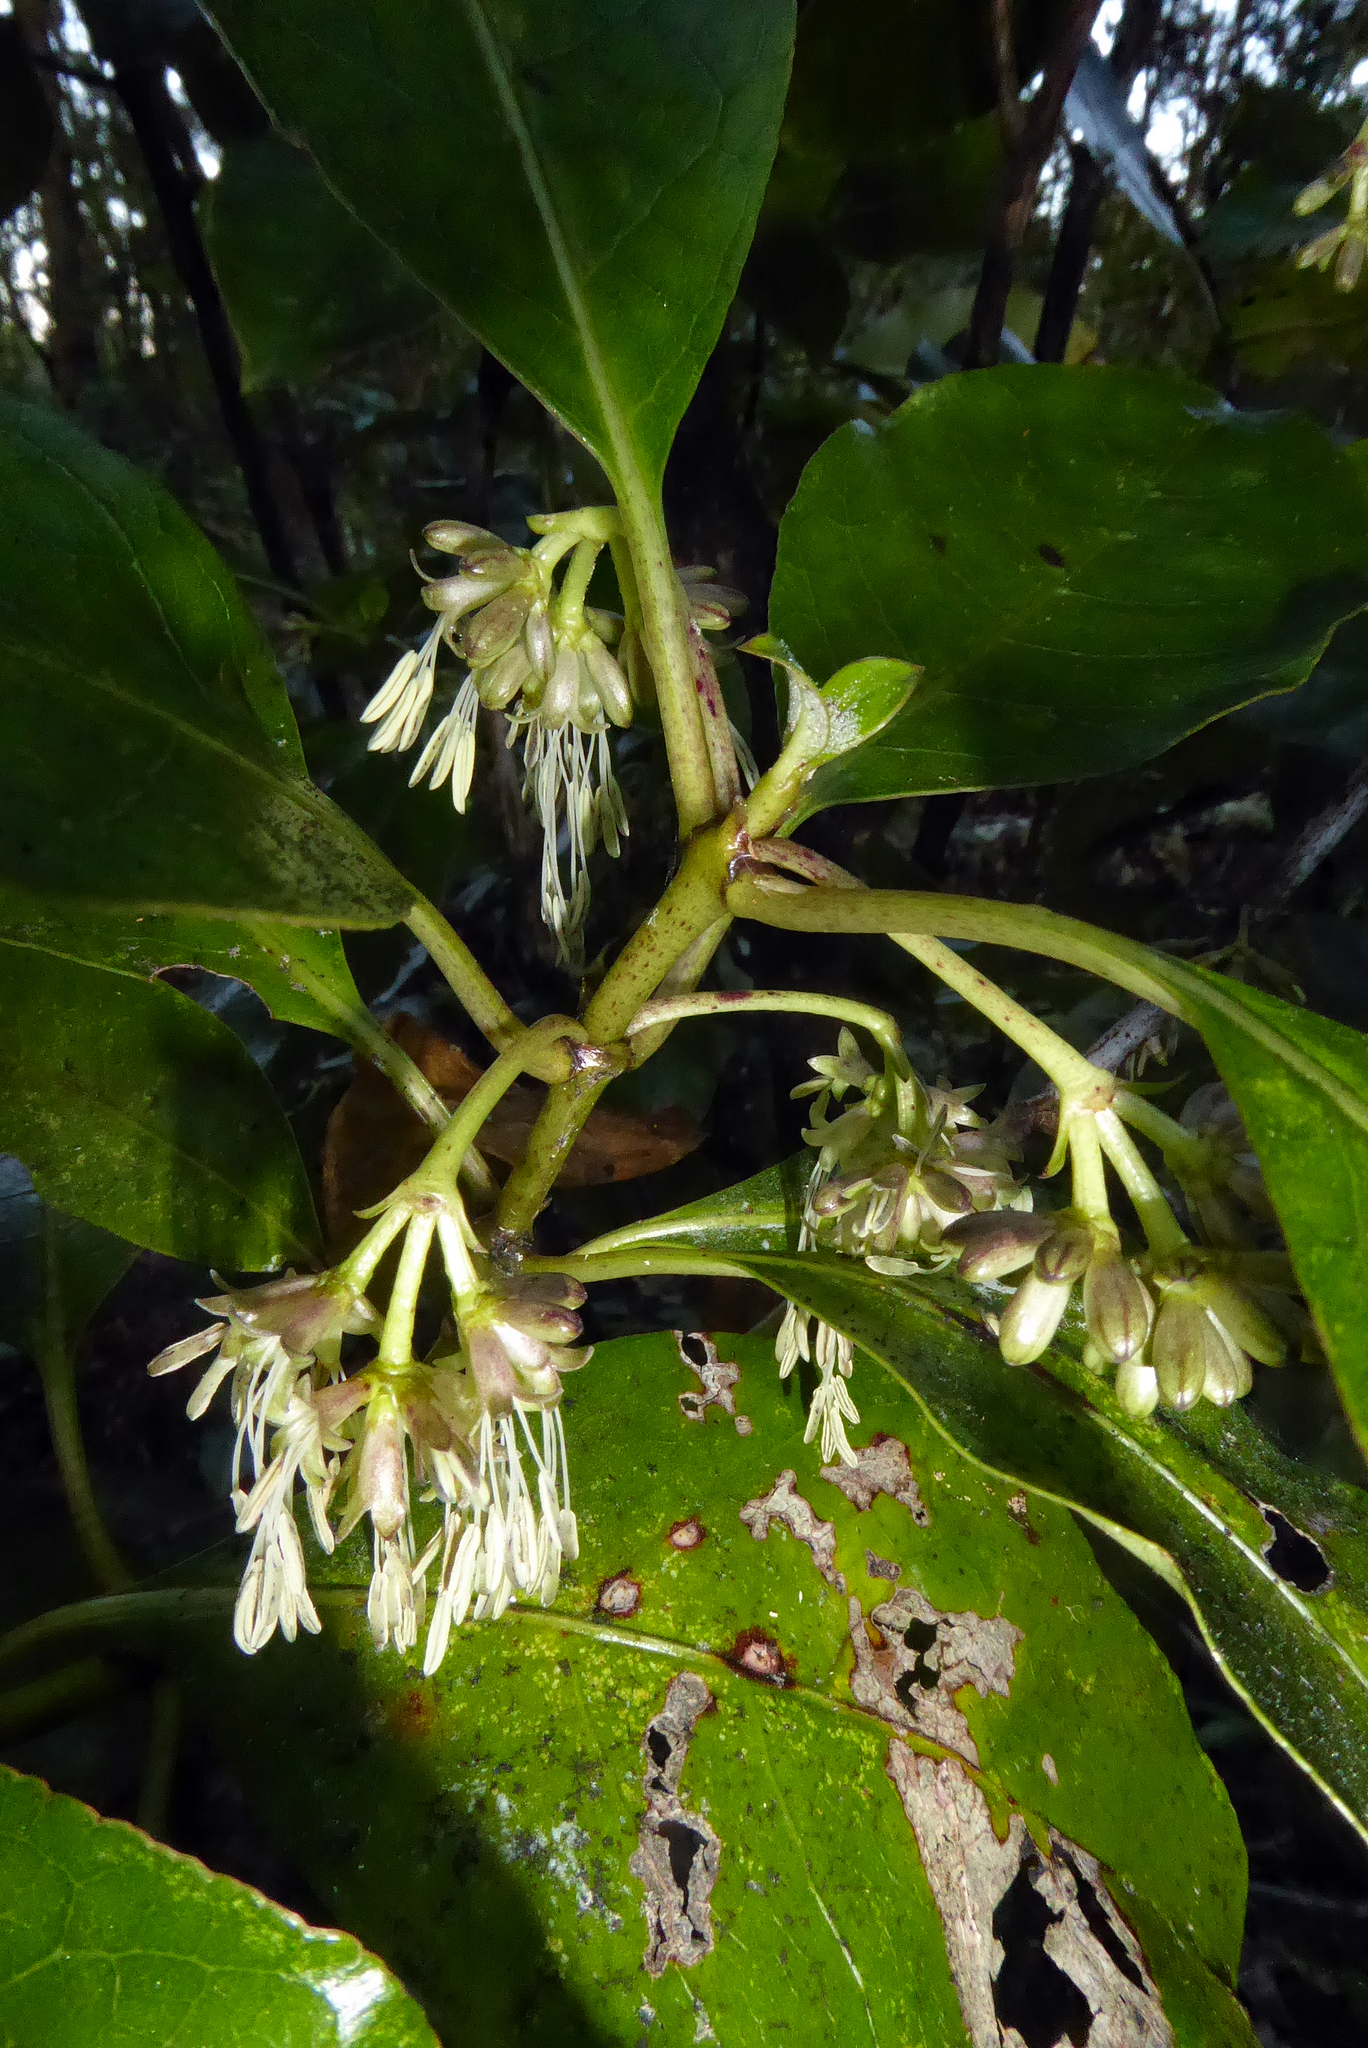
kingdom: Plantae
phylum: Tracheophyta
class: Magnoliopsida
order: Gentianales
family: Rubiaceae
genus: Coprosma
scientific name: Coprosma autumnalis
